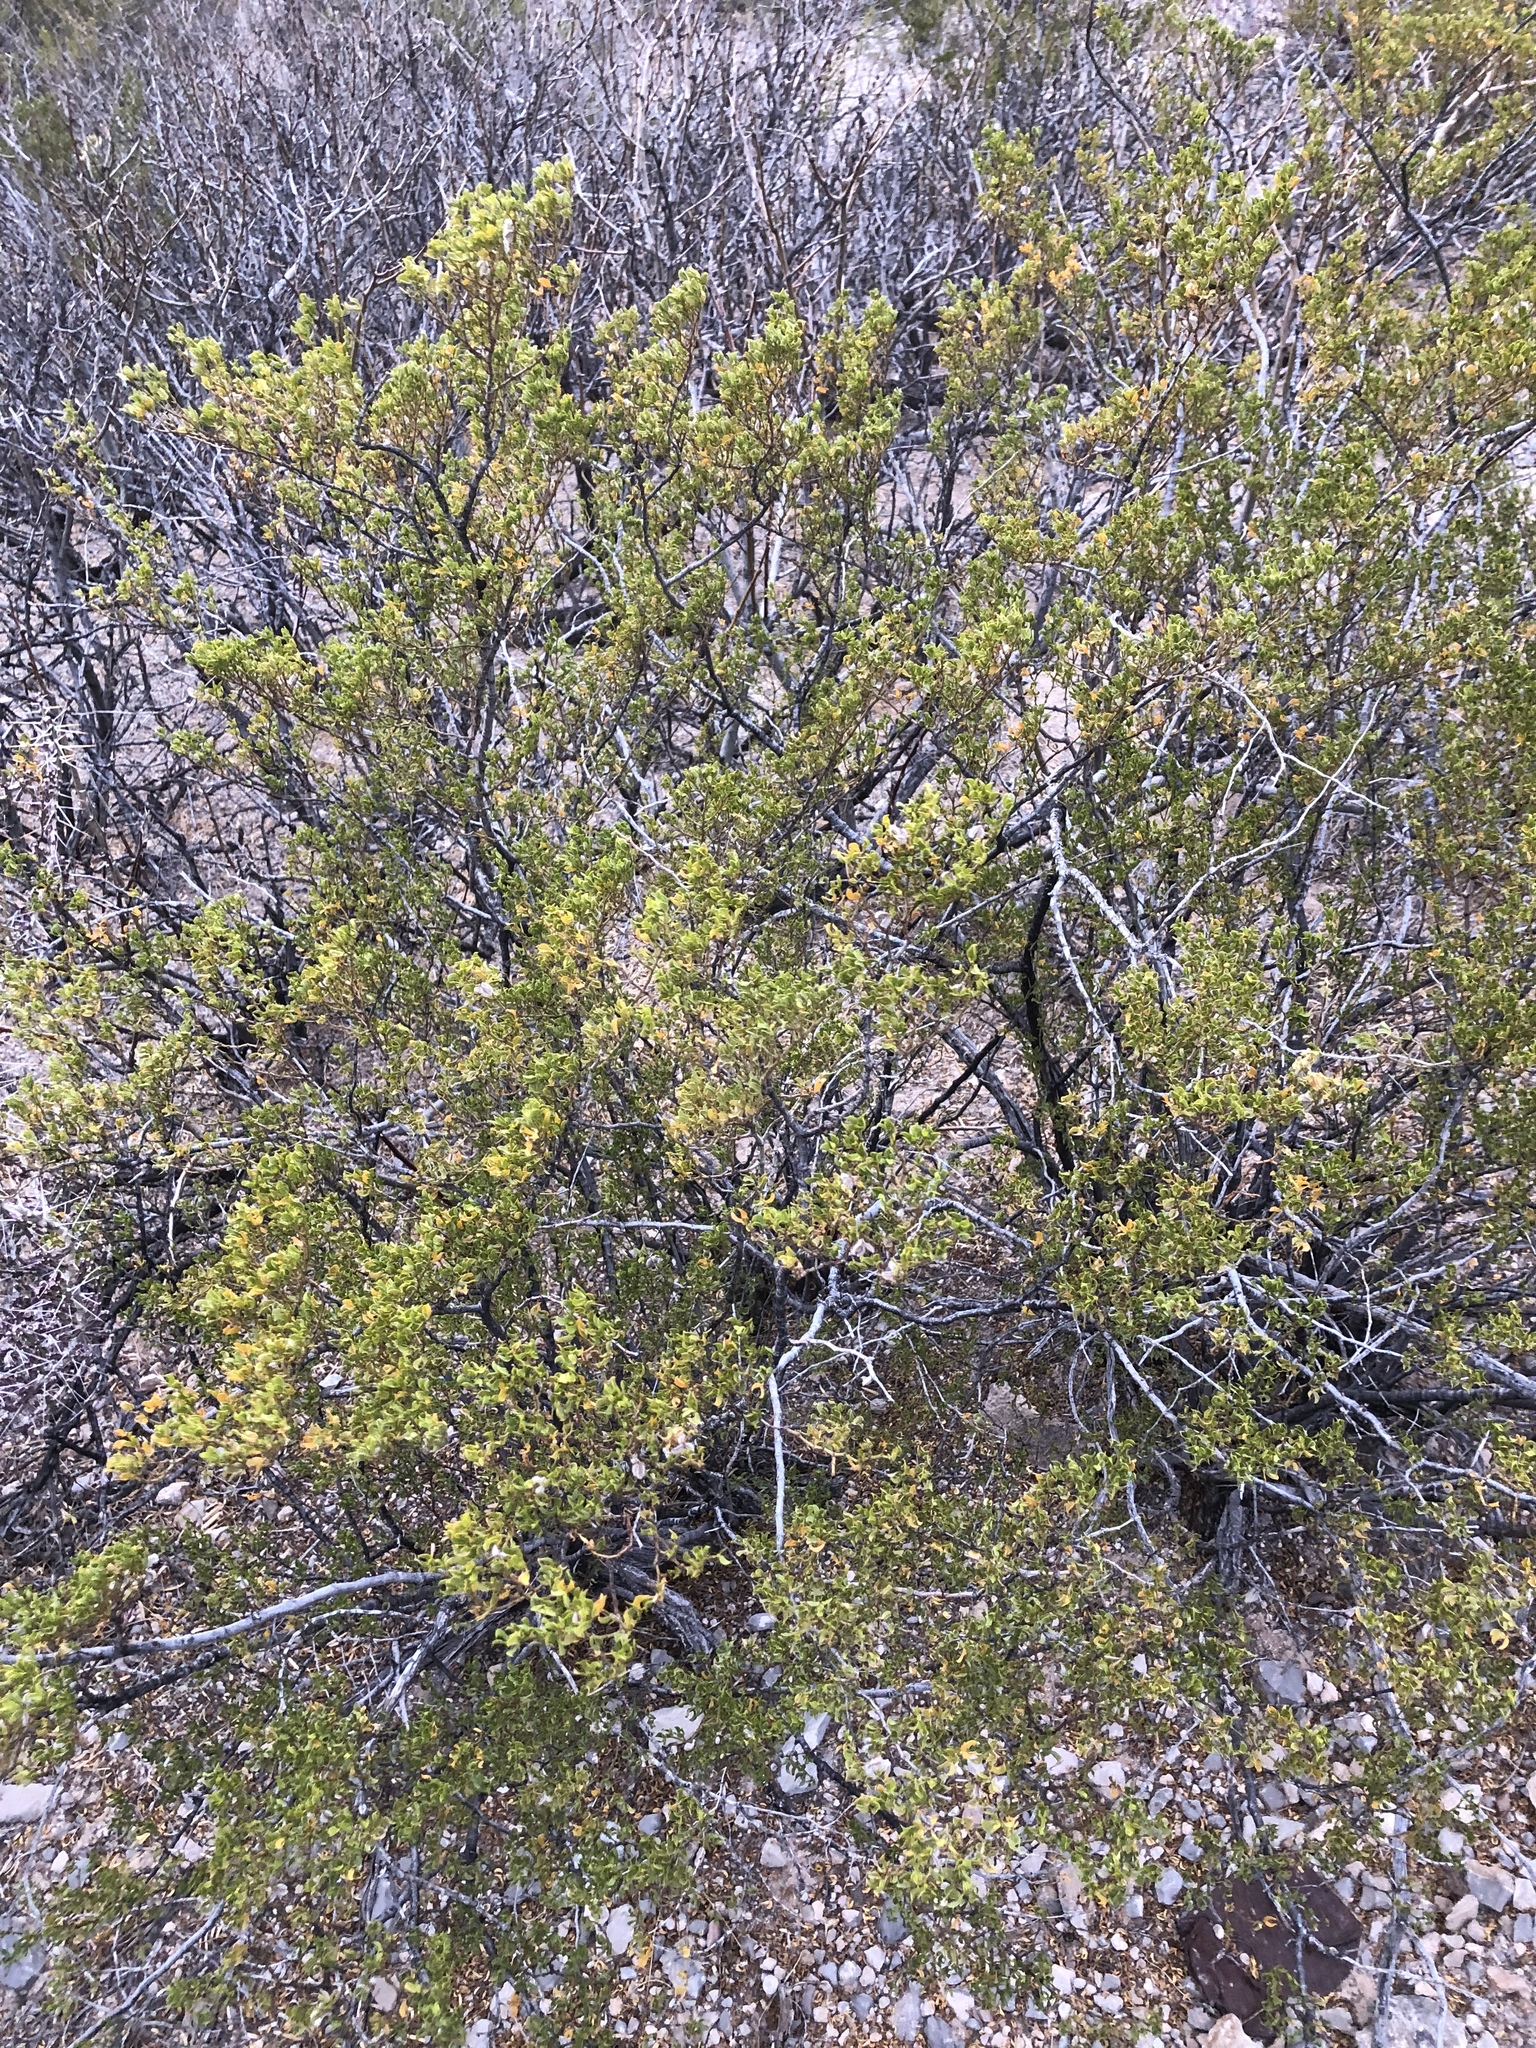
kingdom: Plantae
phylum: Tracheophyta
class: Magnoliopsida
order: Zygophyllales
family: Zygophyllaceae
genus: Larrea
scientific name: Larrea tridentata
